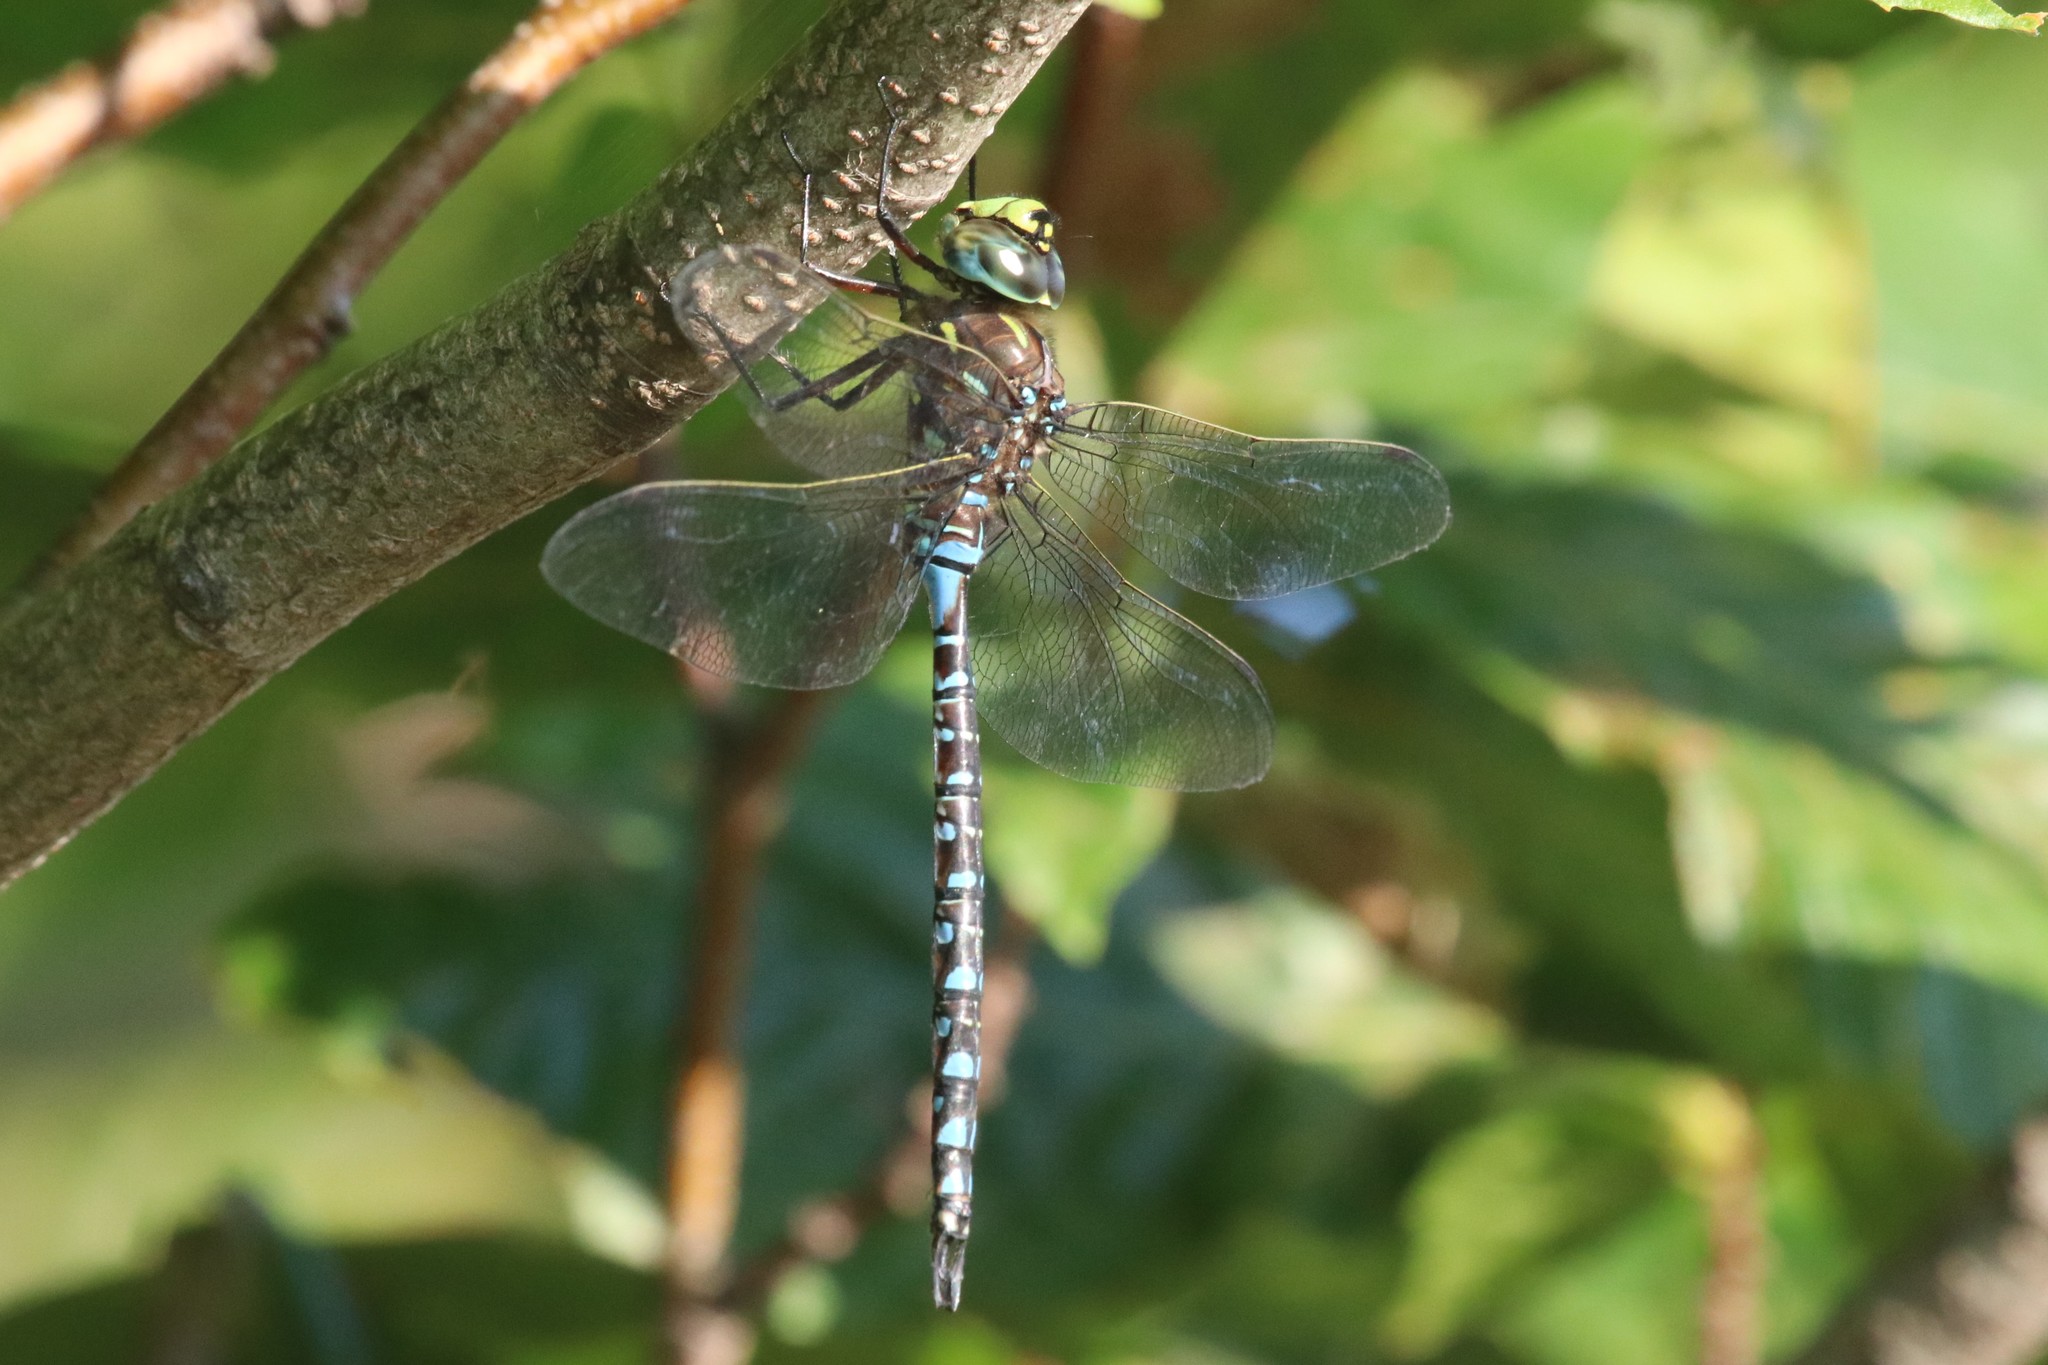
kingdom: Animalia
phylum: Arthropoda
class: Insecta
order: Odonata
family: Aeshnidae
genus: Aeshna
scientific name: Aeshna interrupta
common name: Variable darner
